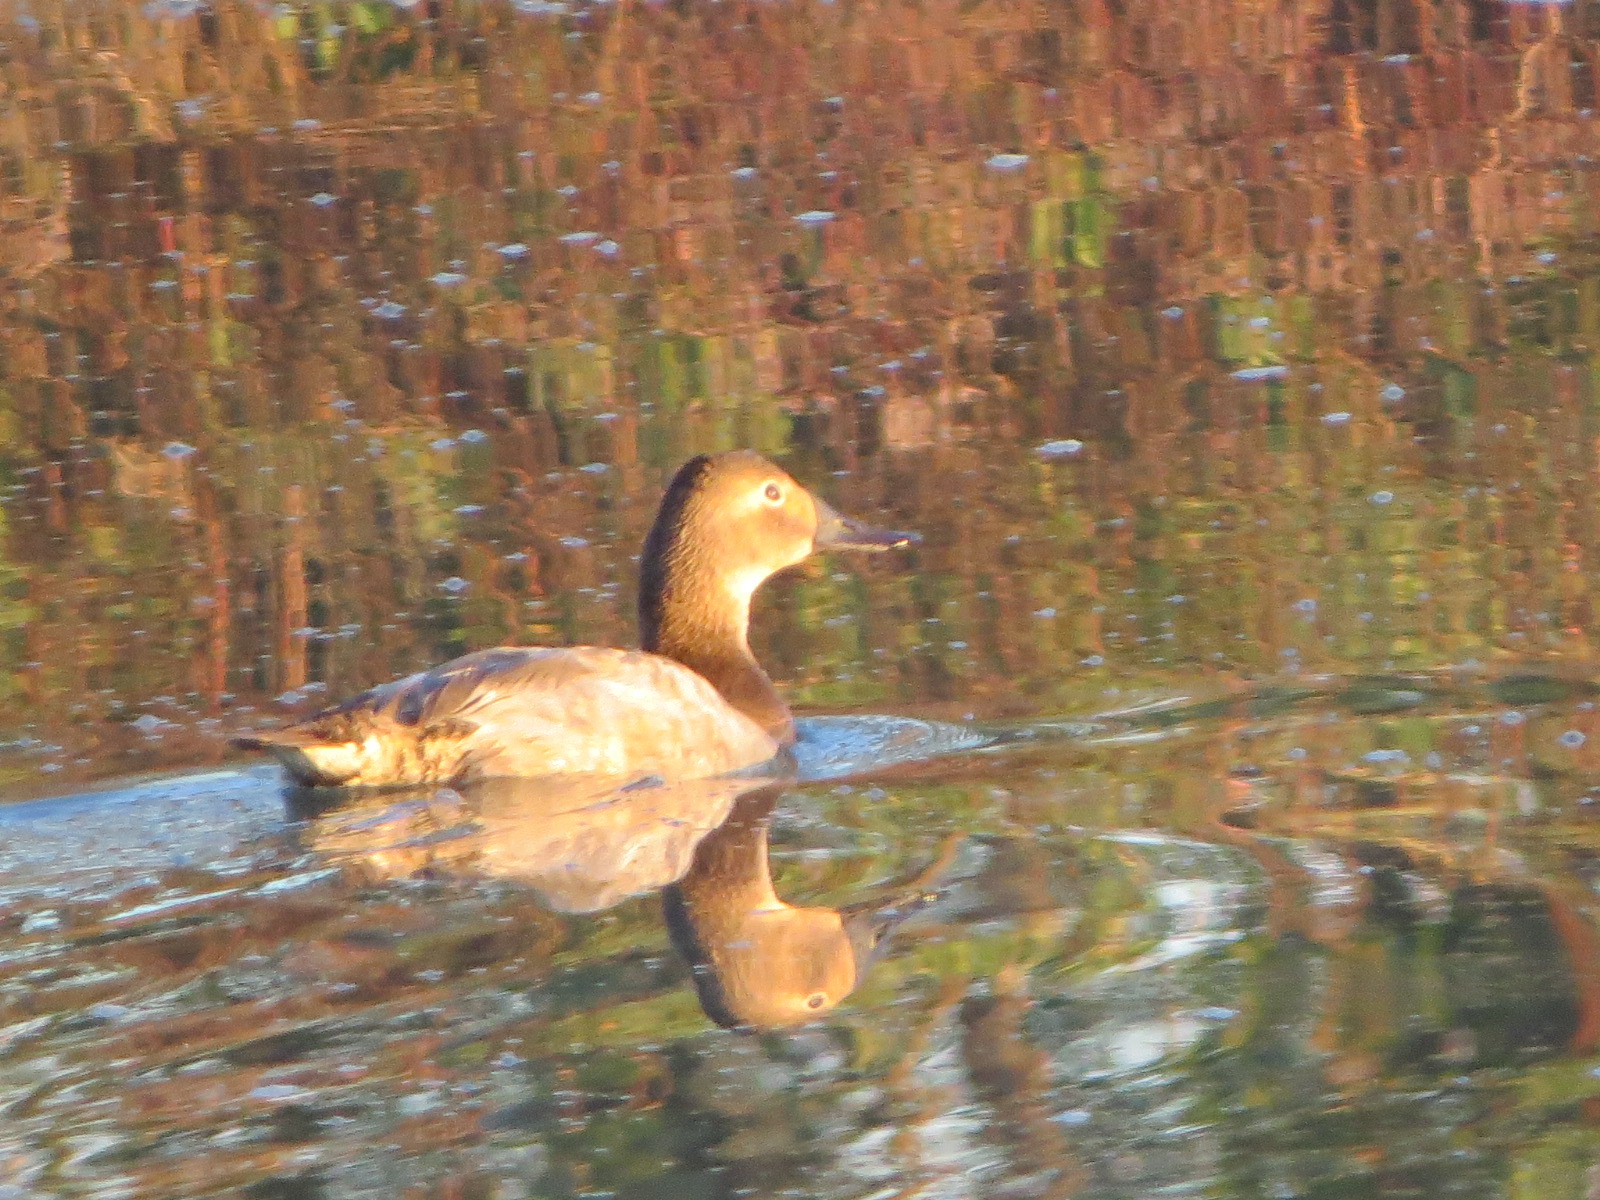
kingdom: Animalia
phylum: Chordata
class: Aves
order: Anseriformes
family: Anatidae
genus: Aythya
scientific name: Aythya valisineria
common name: Canvasback
